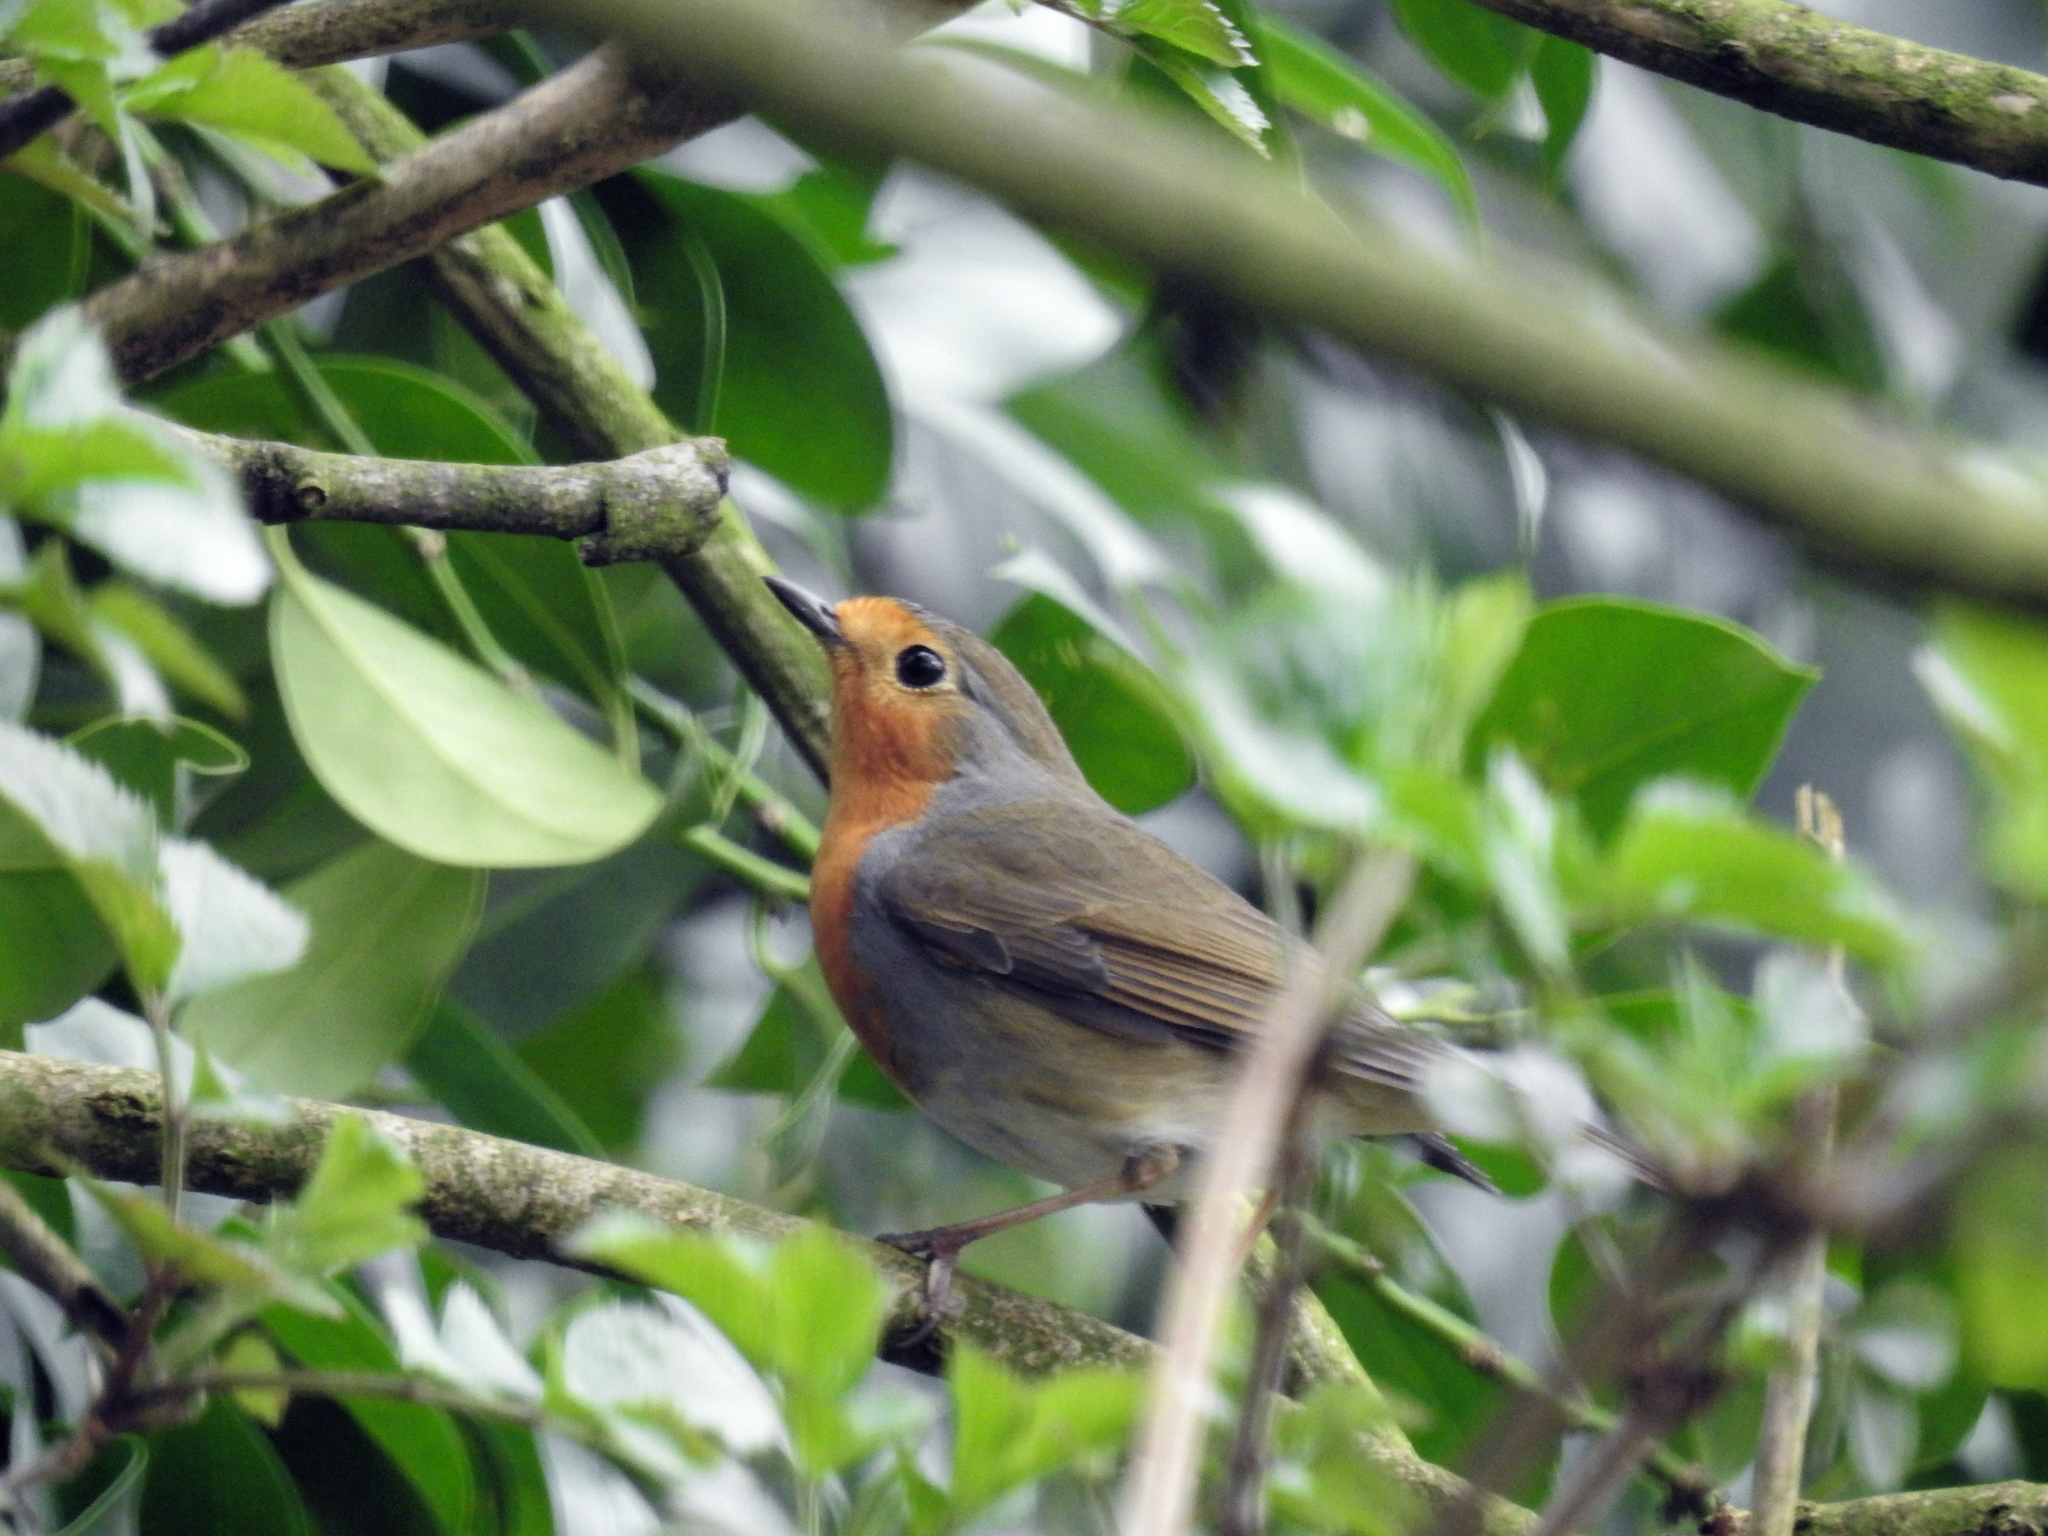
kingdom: Animalia
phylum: Chordata
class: Aves
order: Passeriformes
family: Muscicapidae
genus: Erithacus
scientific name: Erithacus rubecula
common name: European robin
